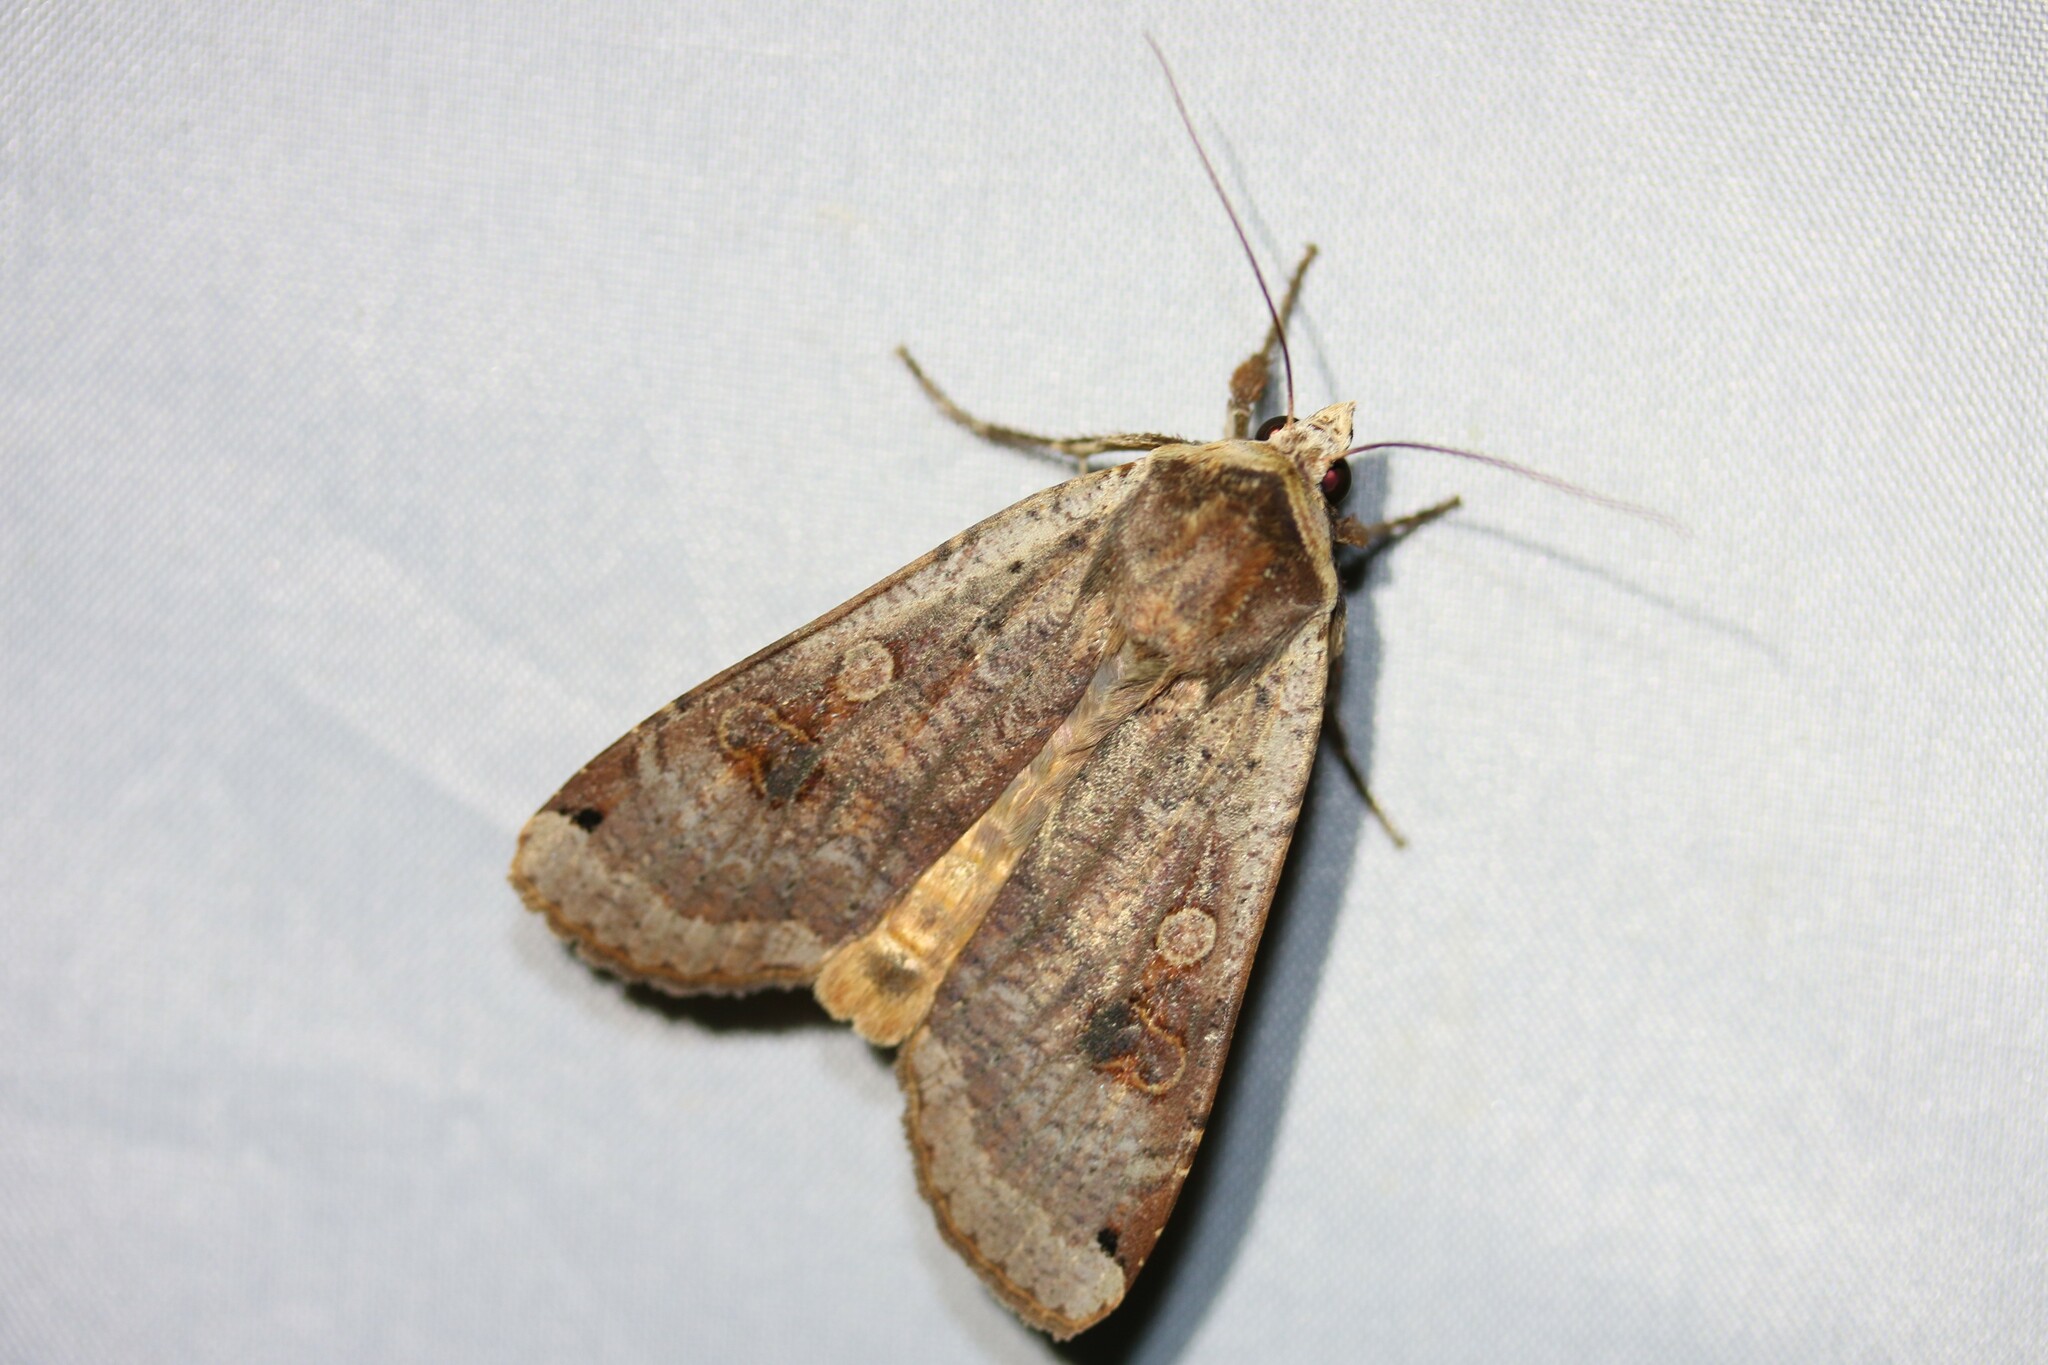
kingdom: Animalia
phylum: Arthropoda
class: Insecta
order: Lepidoptera
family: Noctuidae
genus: Noctua
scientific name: Noctua pronuba
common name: Large yellow underwing
